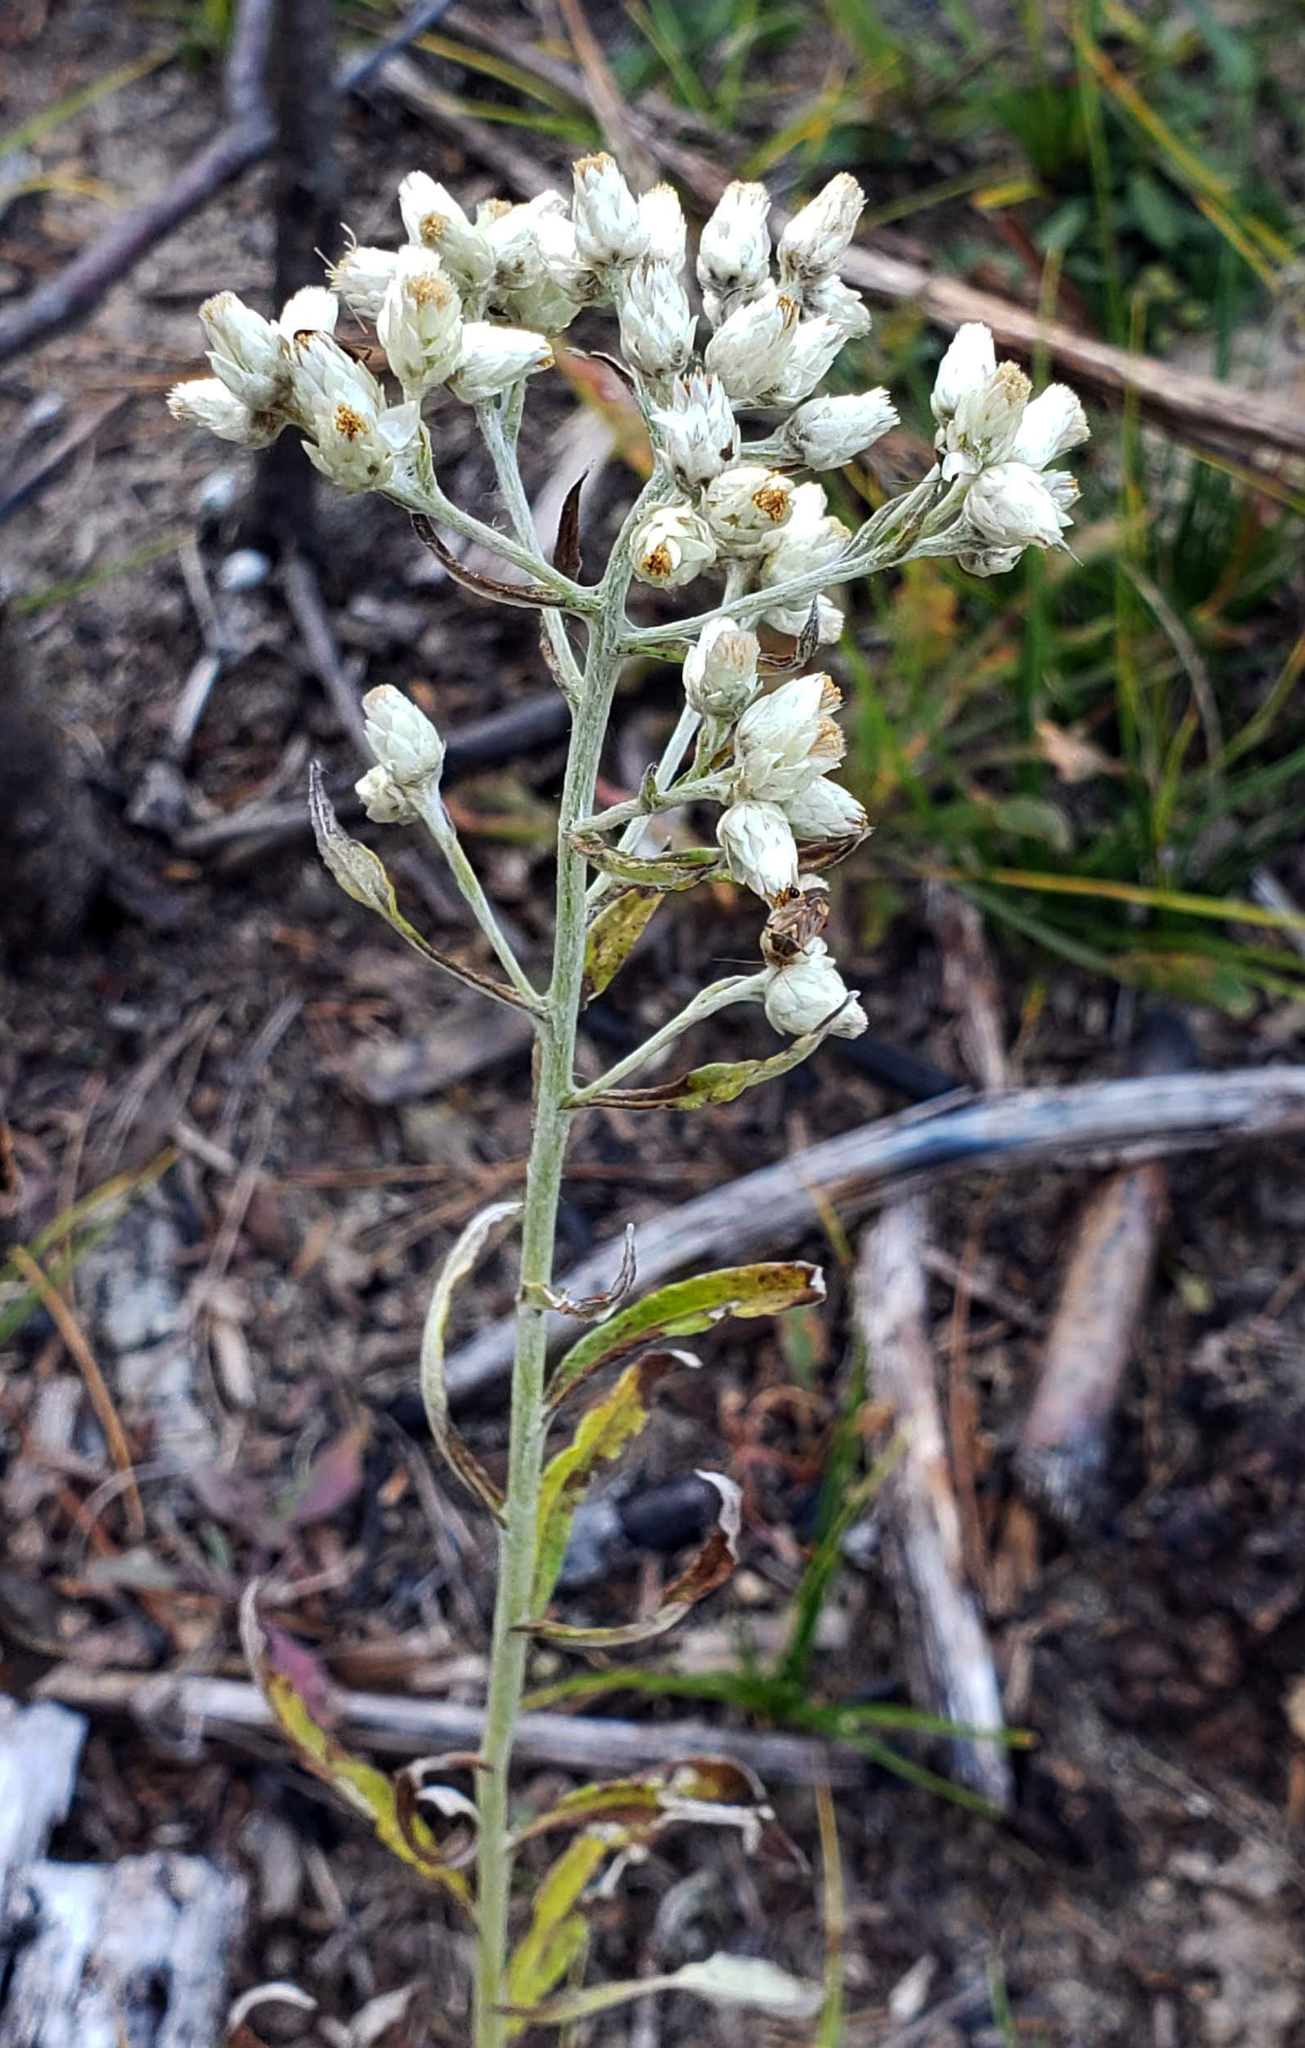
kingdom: Plantae
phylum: Tracheophyta
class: Magnoliopsida
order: Asterales
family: Asteraceae
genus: Pseudognaphalium
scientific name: Pseudognaphalium obtusifolium
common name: Eastern rabbit-tobacco
